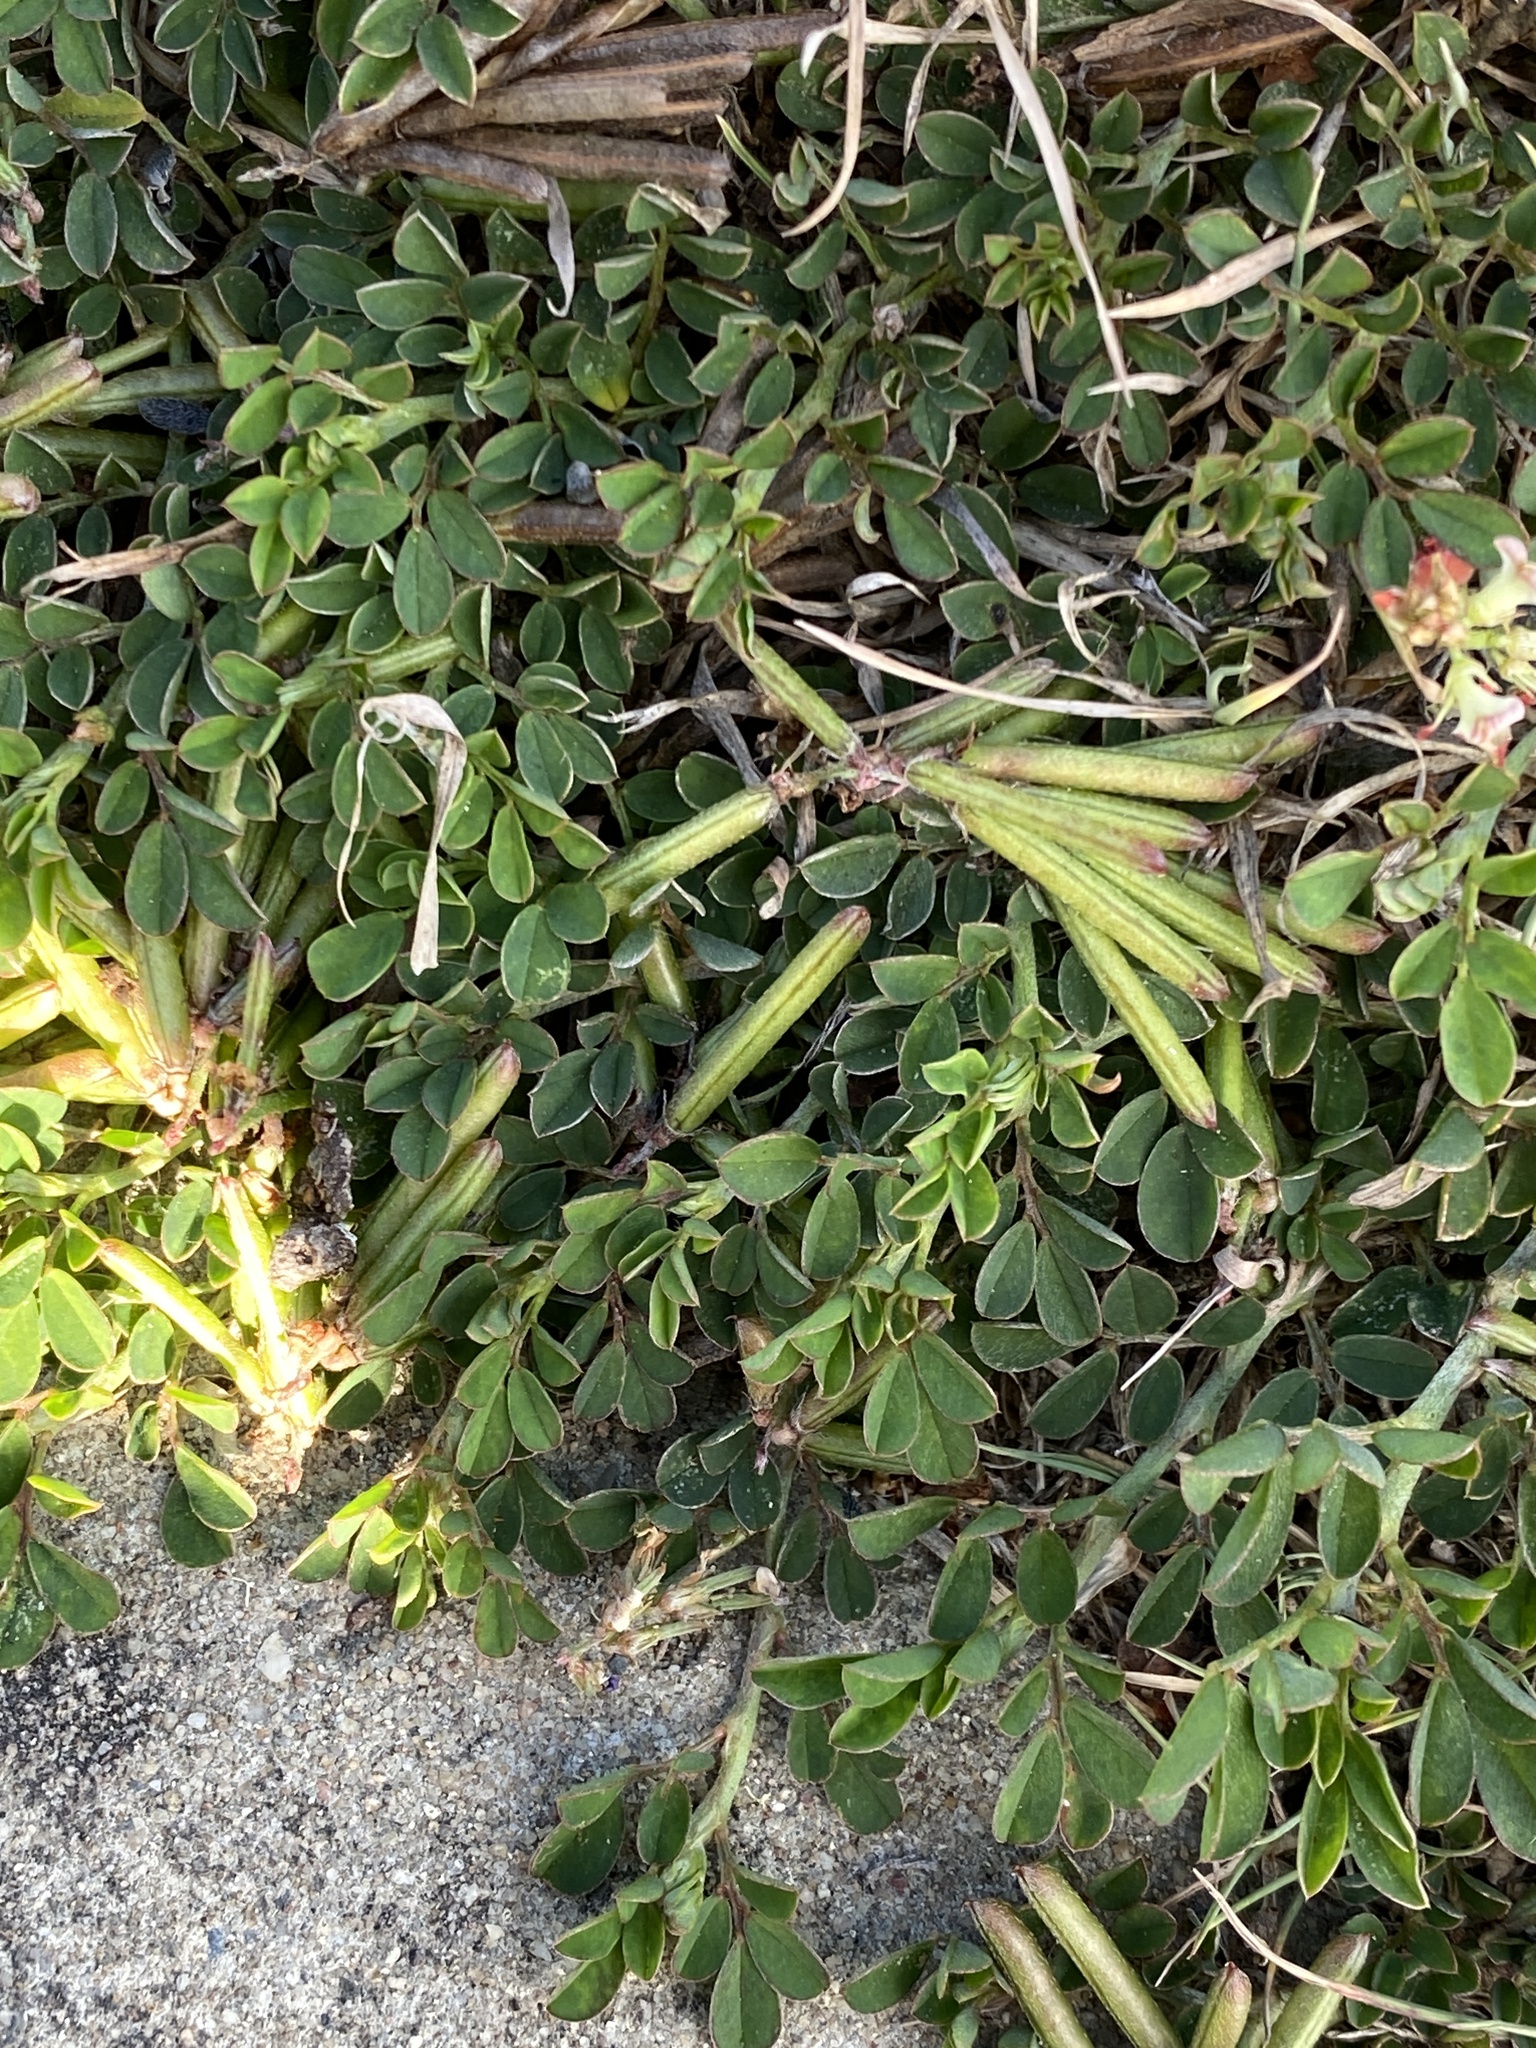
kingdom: Plantae
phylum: Tracheophyta
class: Magnoliopsida
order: Fabales
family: Fabaceae
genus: Indigofera
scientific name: Indigofera spicata
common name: Creeping indigo
